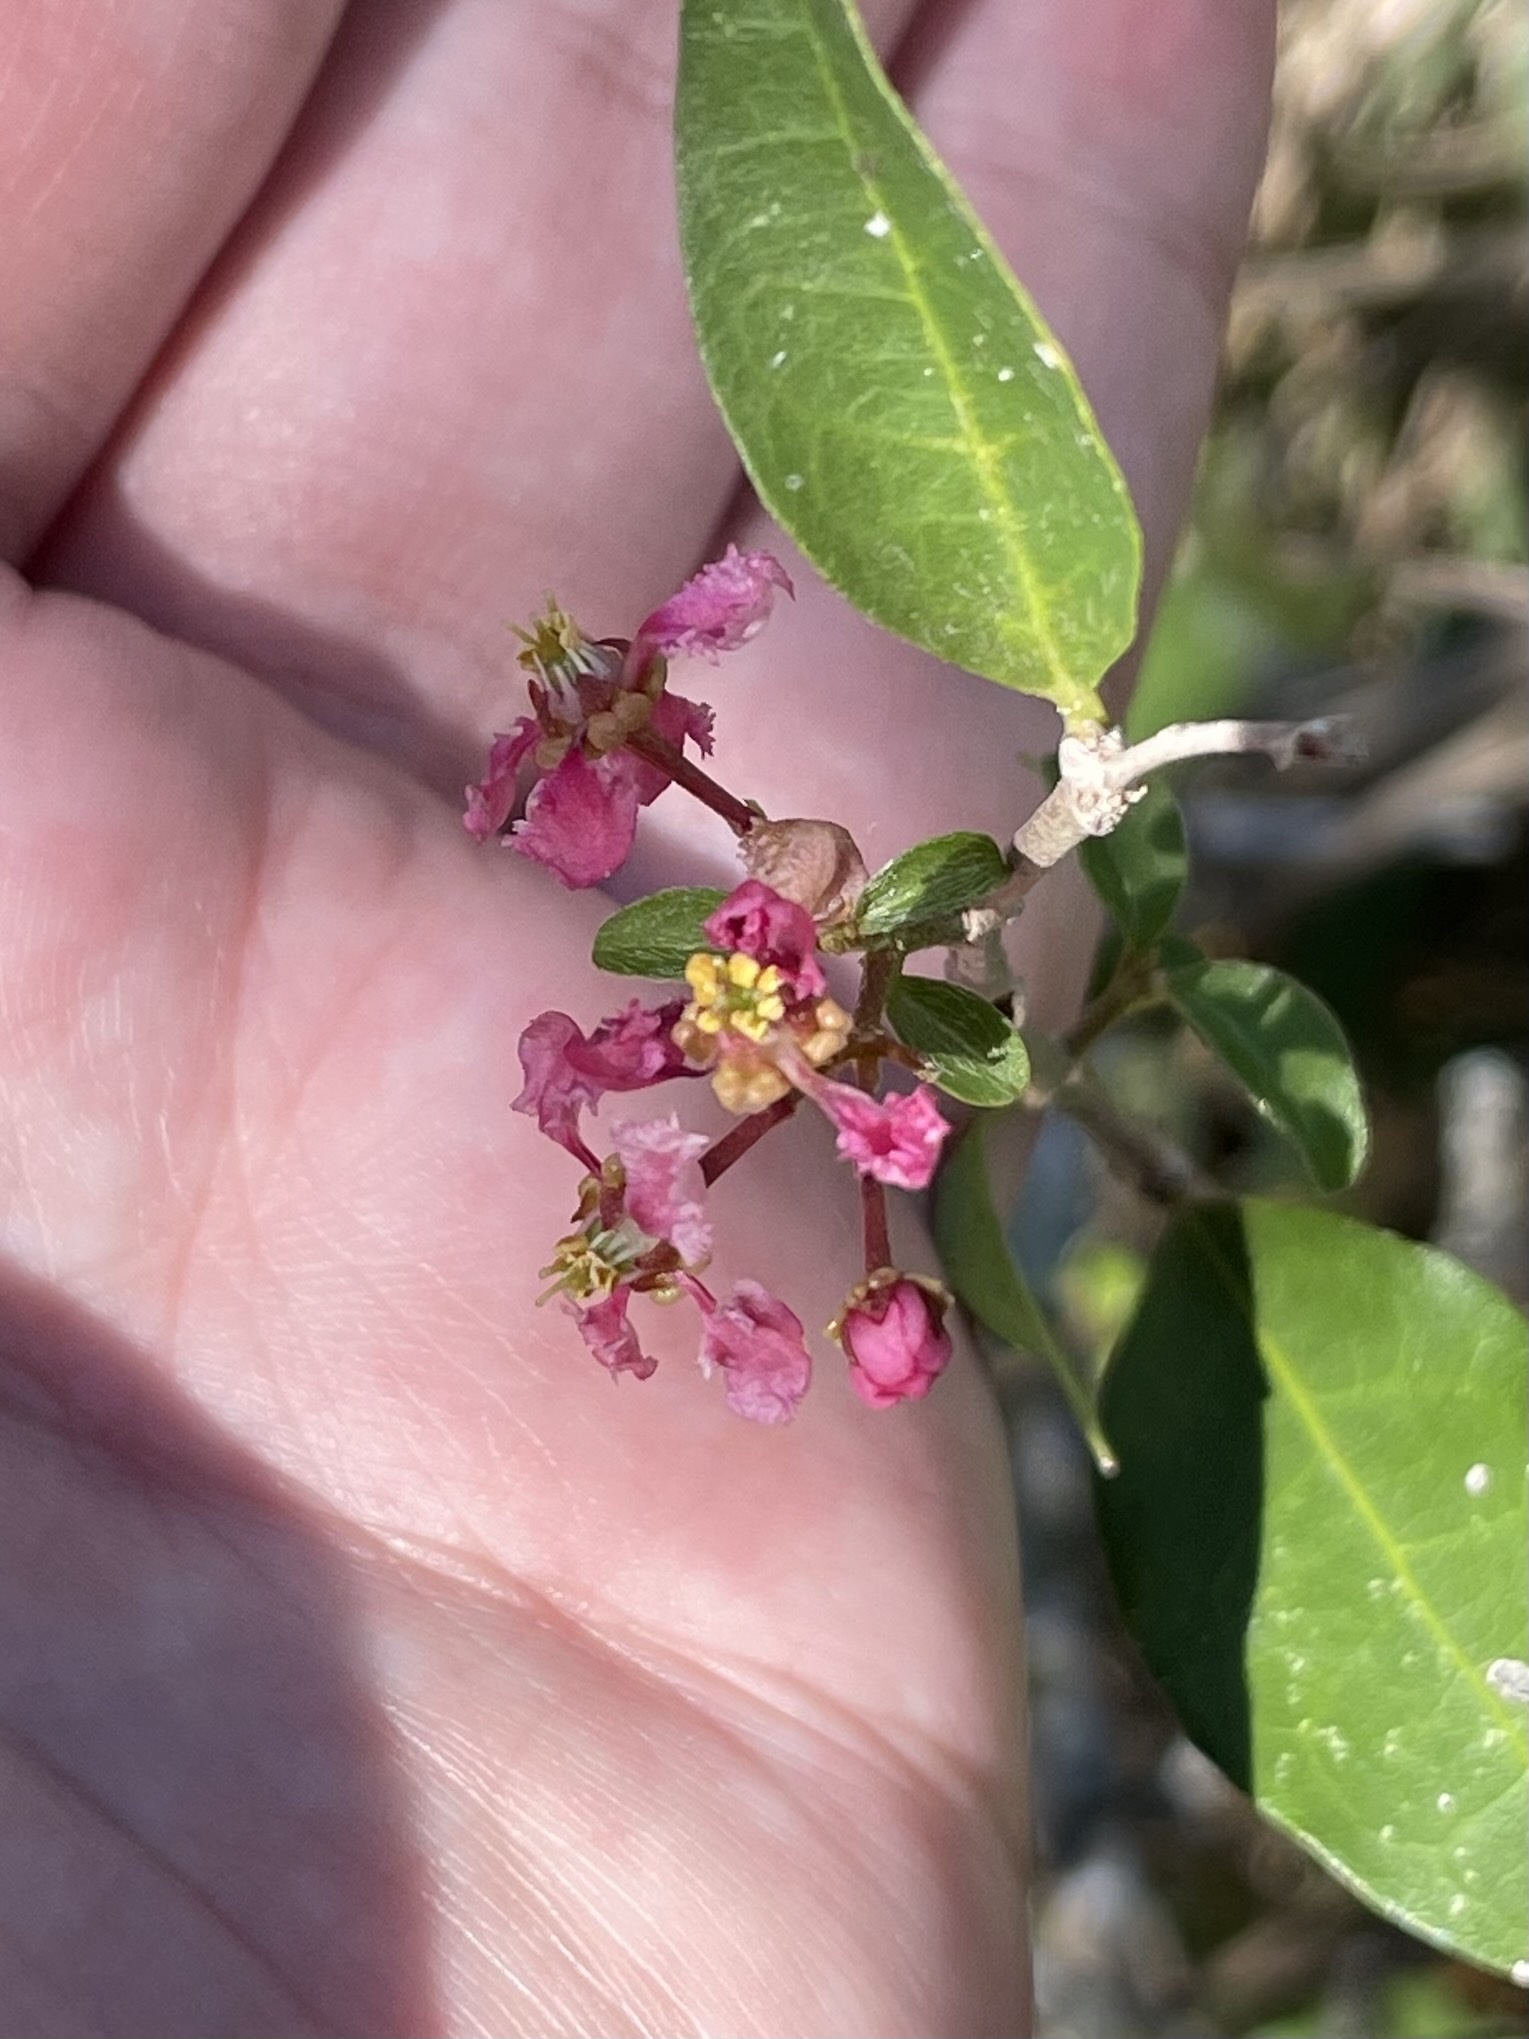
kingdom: Plantae
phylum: Tracheophyta
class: Magnoliopsida
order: Malpighiales
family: Malpighiaceae
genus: Malpighia
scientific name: Malpighia glabra
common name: Barbados cherry
